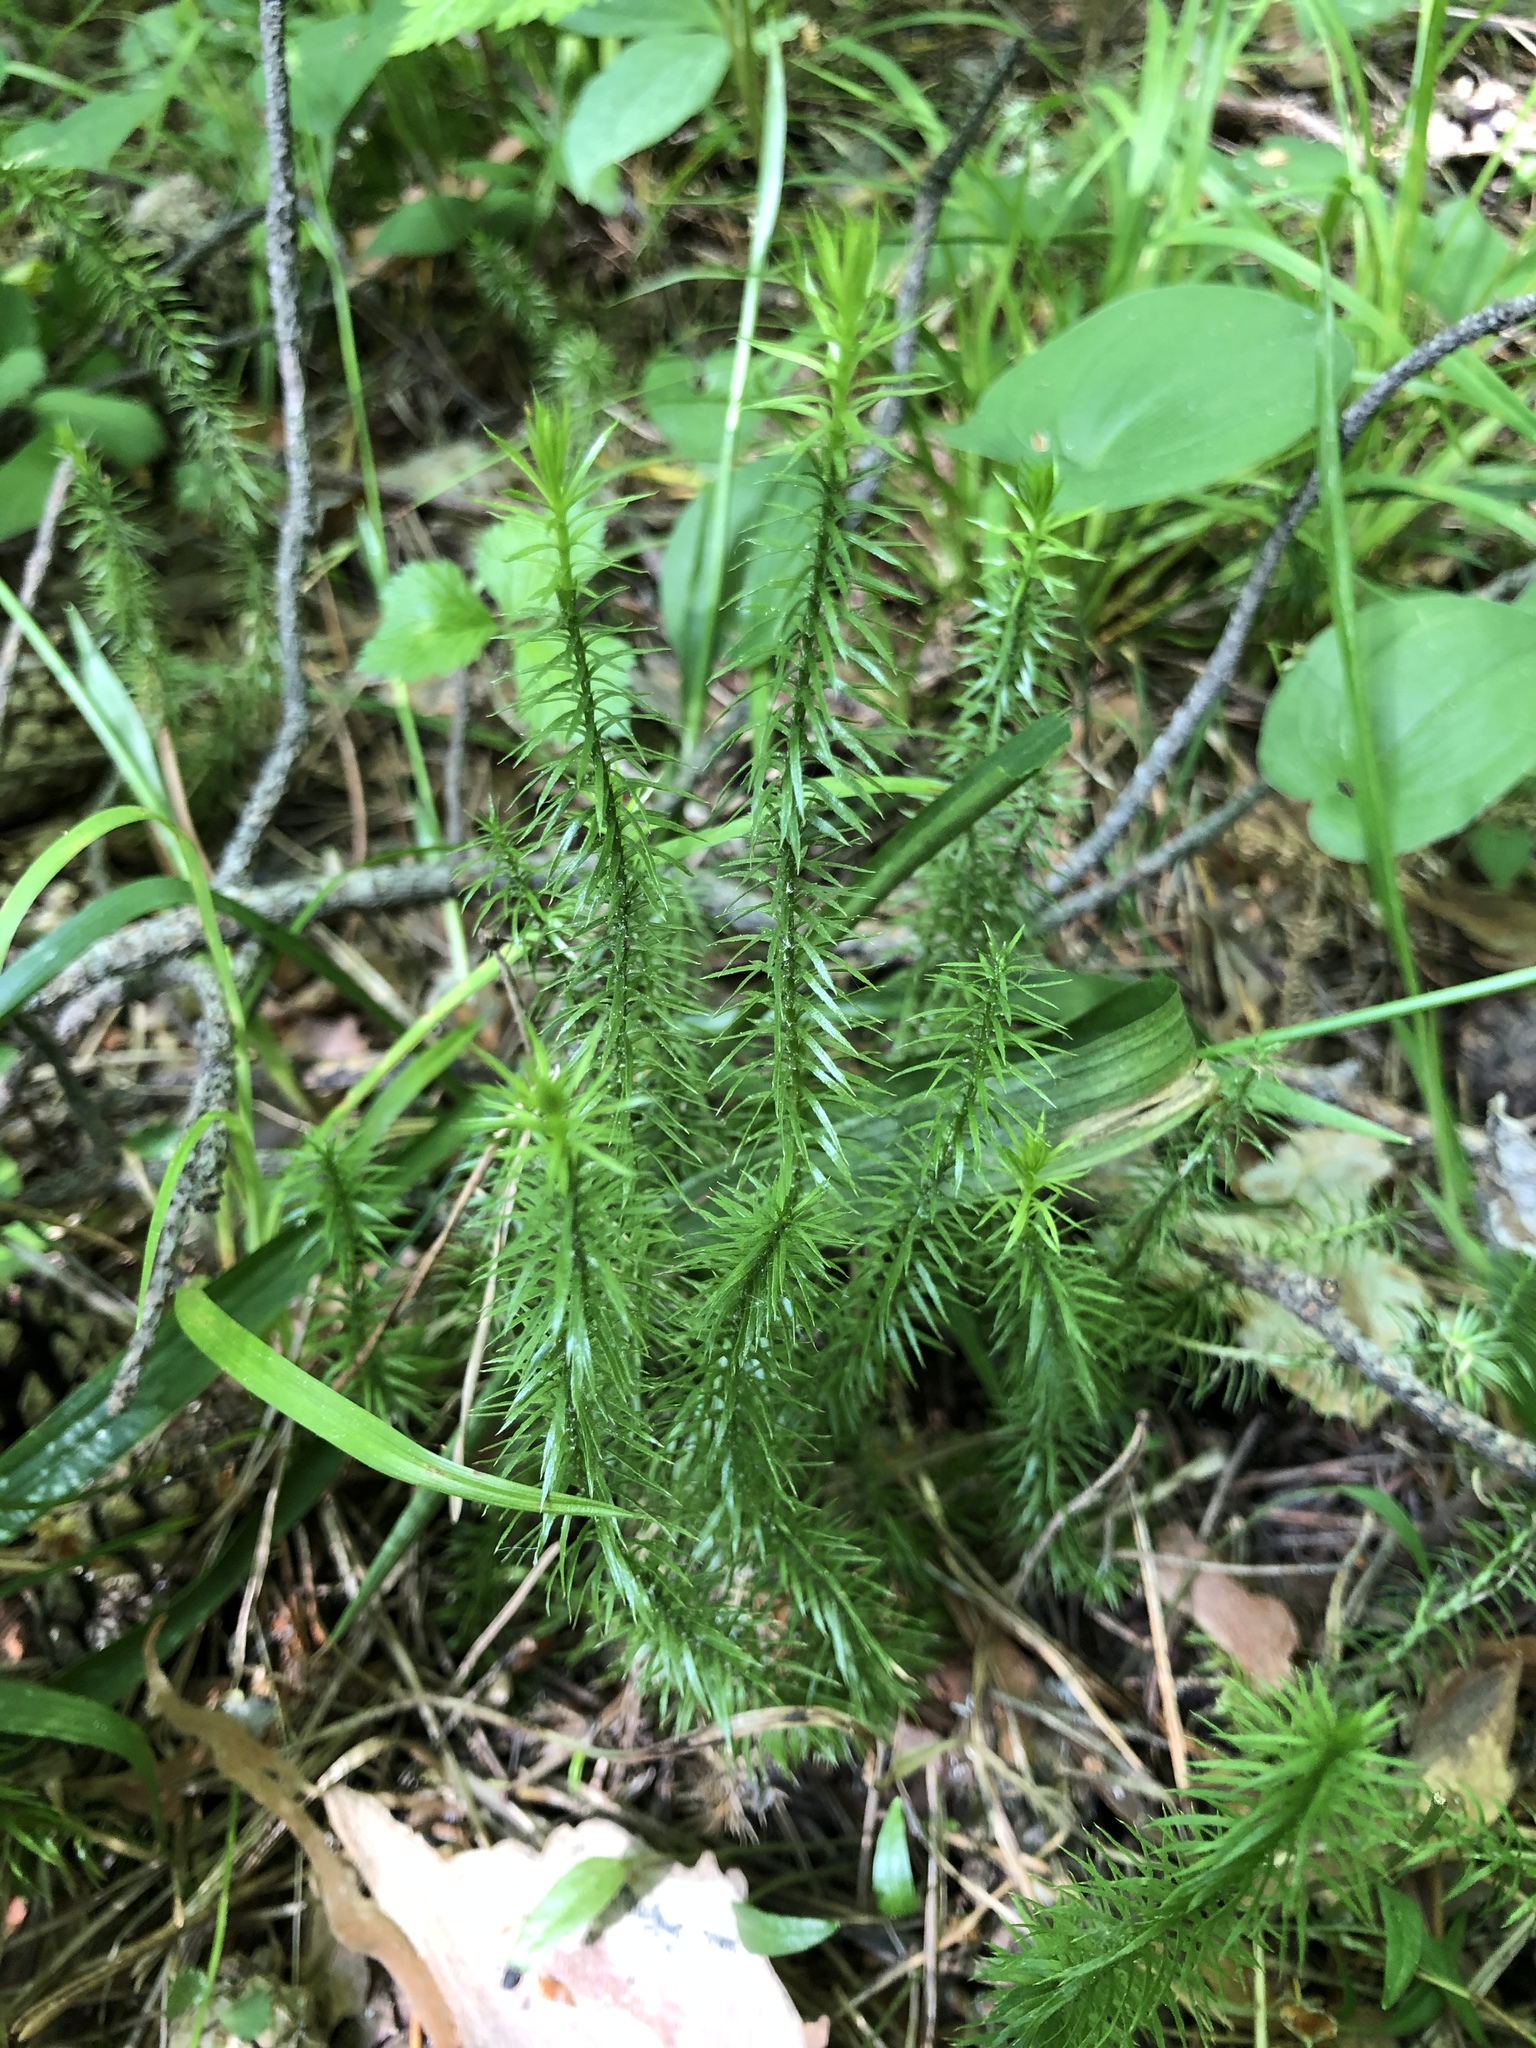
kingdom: Plantae
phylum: Tracheophyta
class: Lycopodiopsida
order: Lycopodiales
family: Lycopodiaceae
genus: Spinulum
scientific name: Spinulum annotinum
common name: Interrupted club-moss
